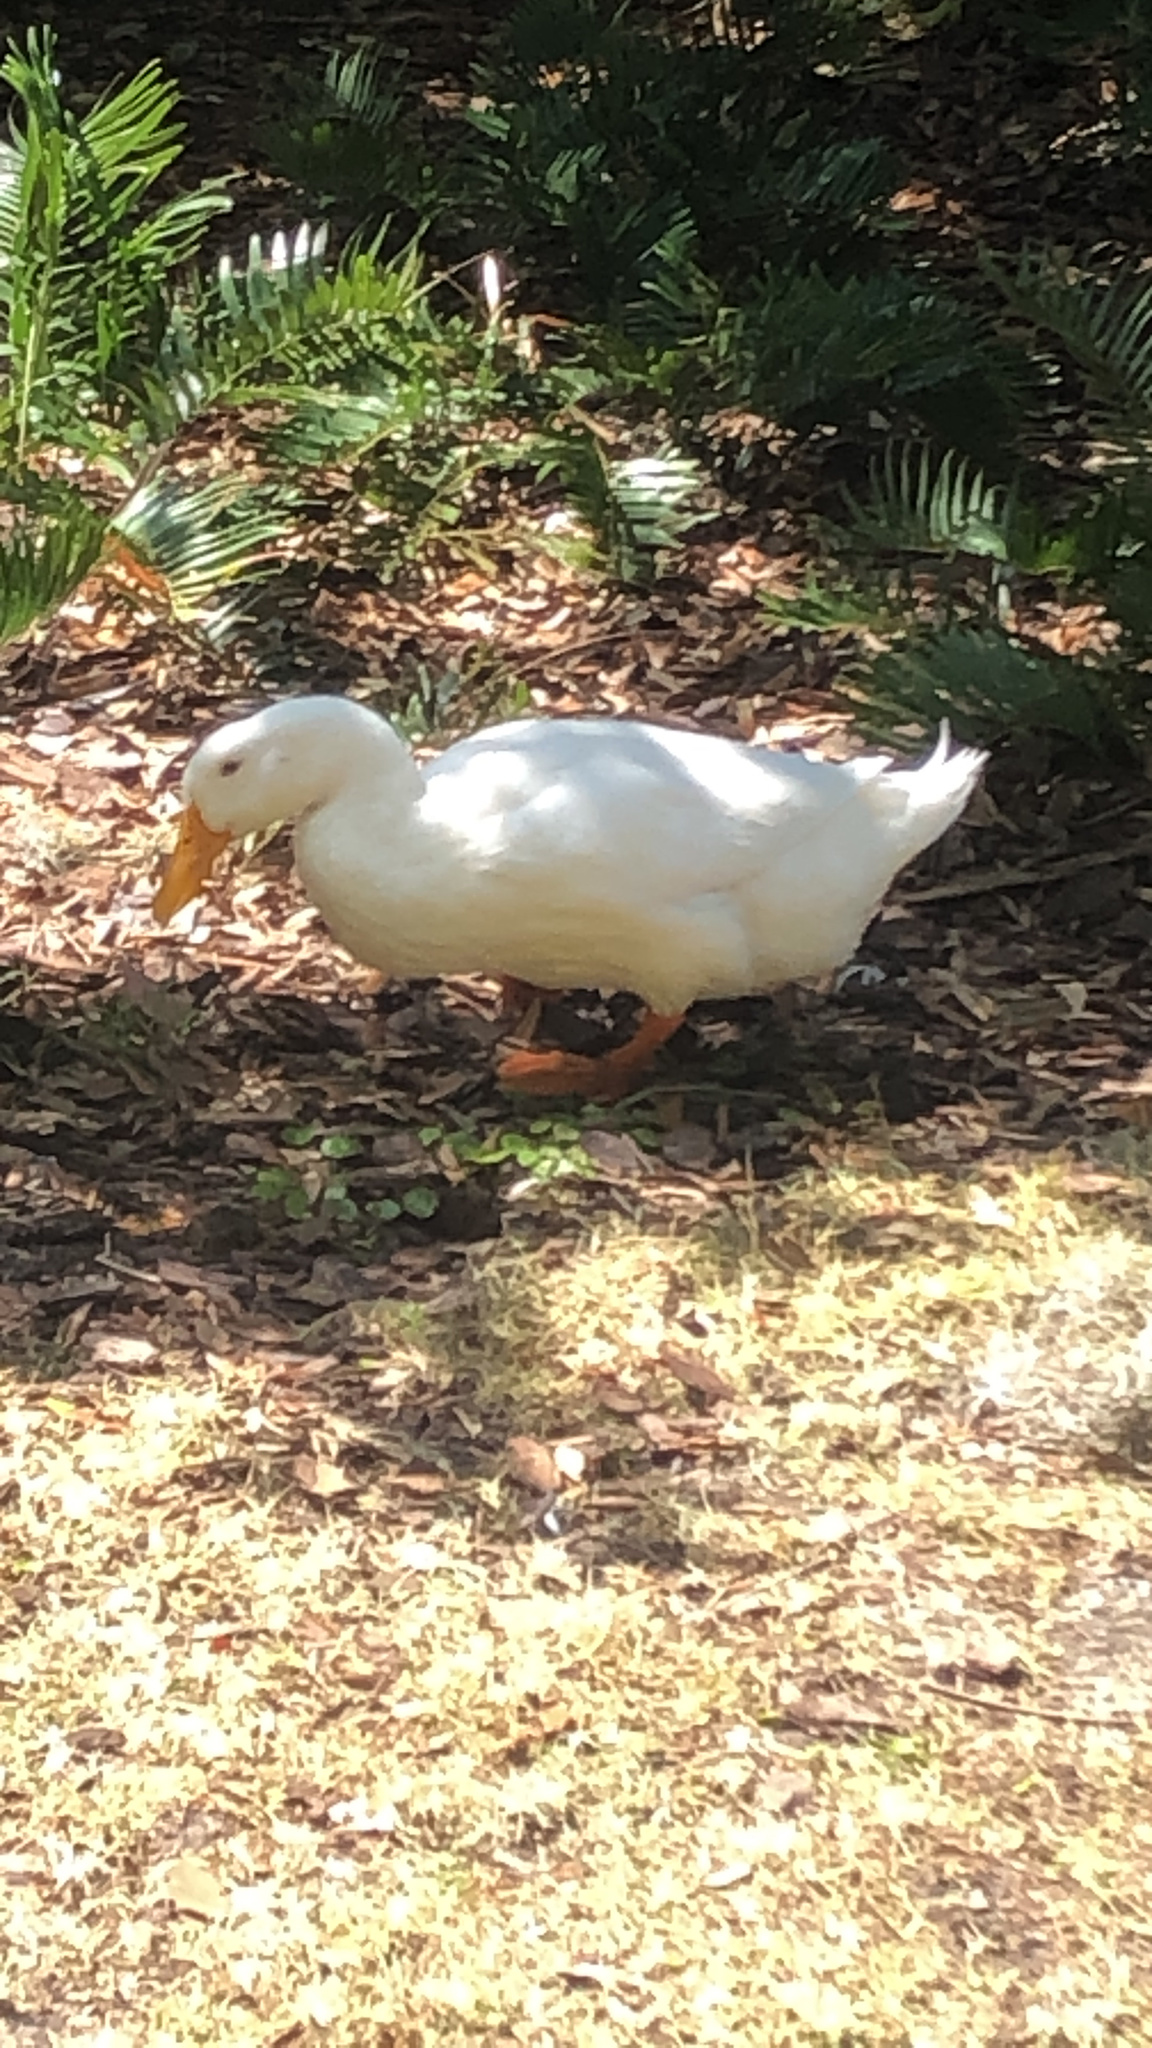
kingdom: Animalia
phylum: Chordata
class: Aves
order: Anseriformes
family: Anatidae
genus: Anas
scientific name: Anas platyrhynchos
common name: Mallard
